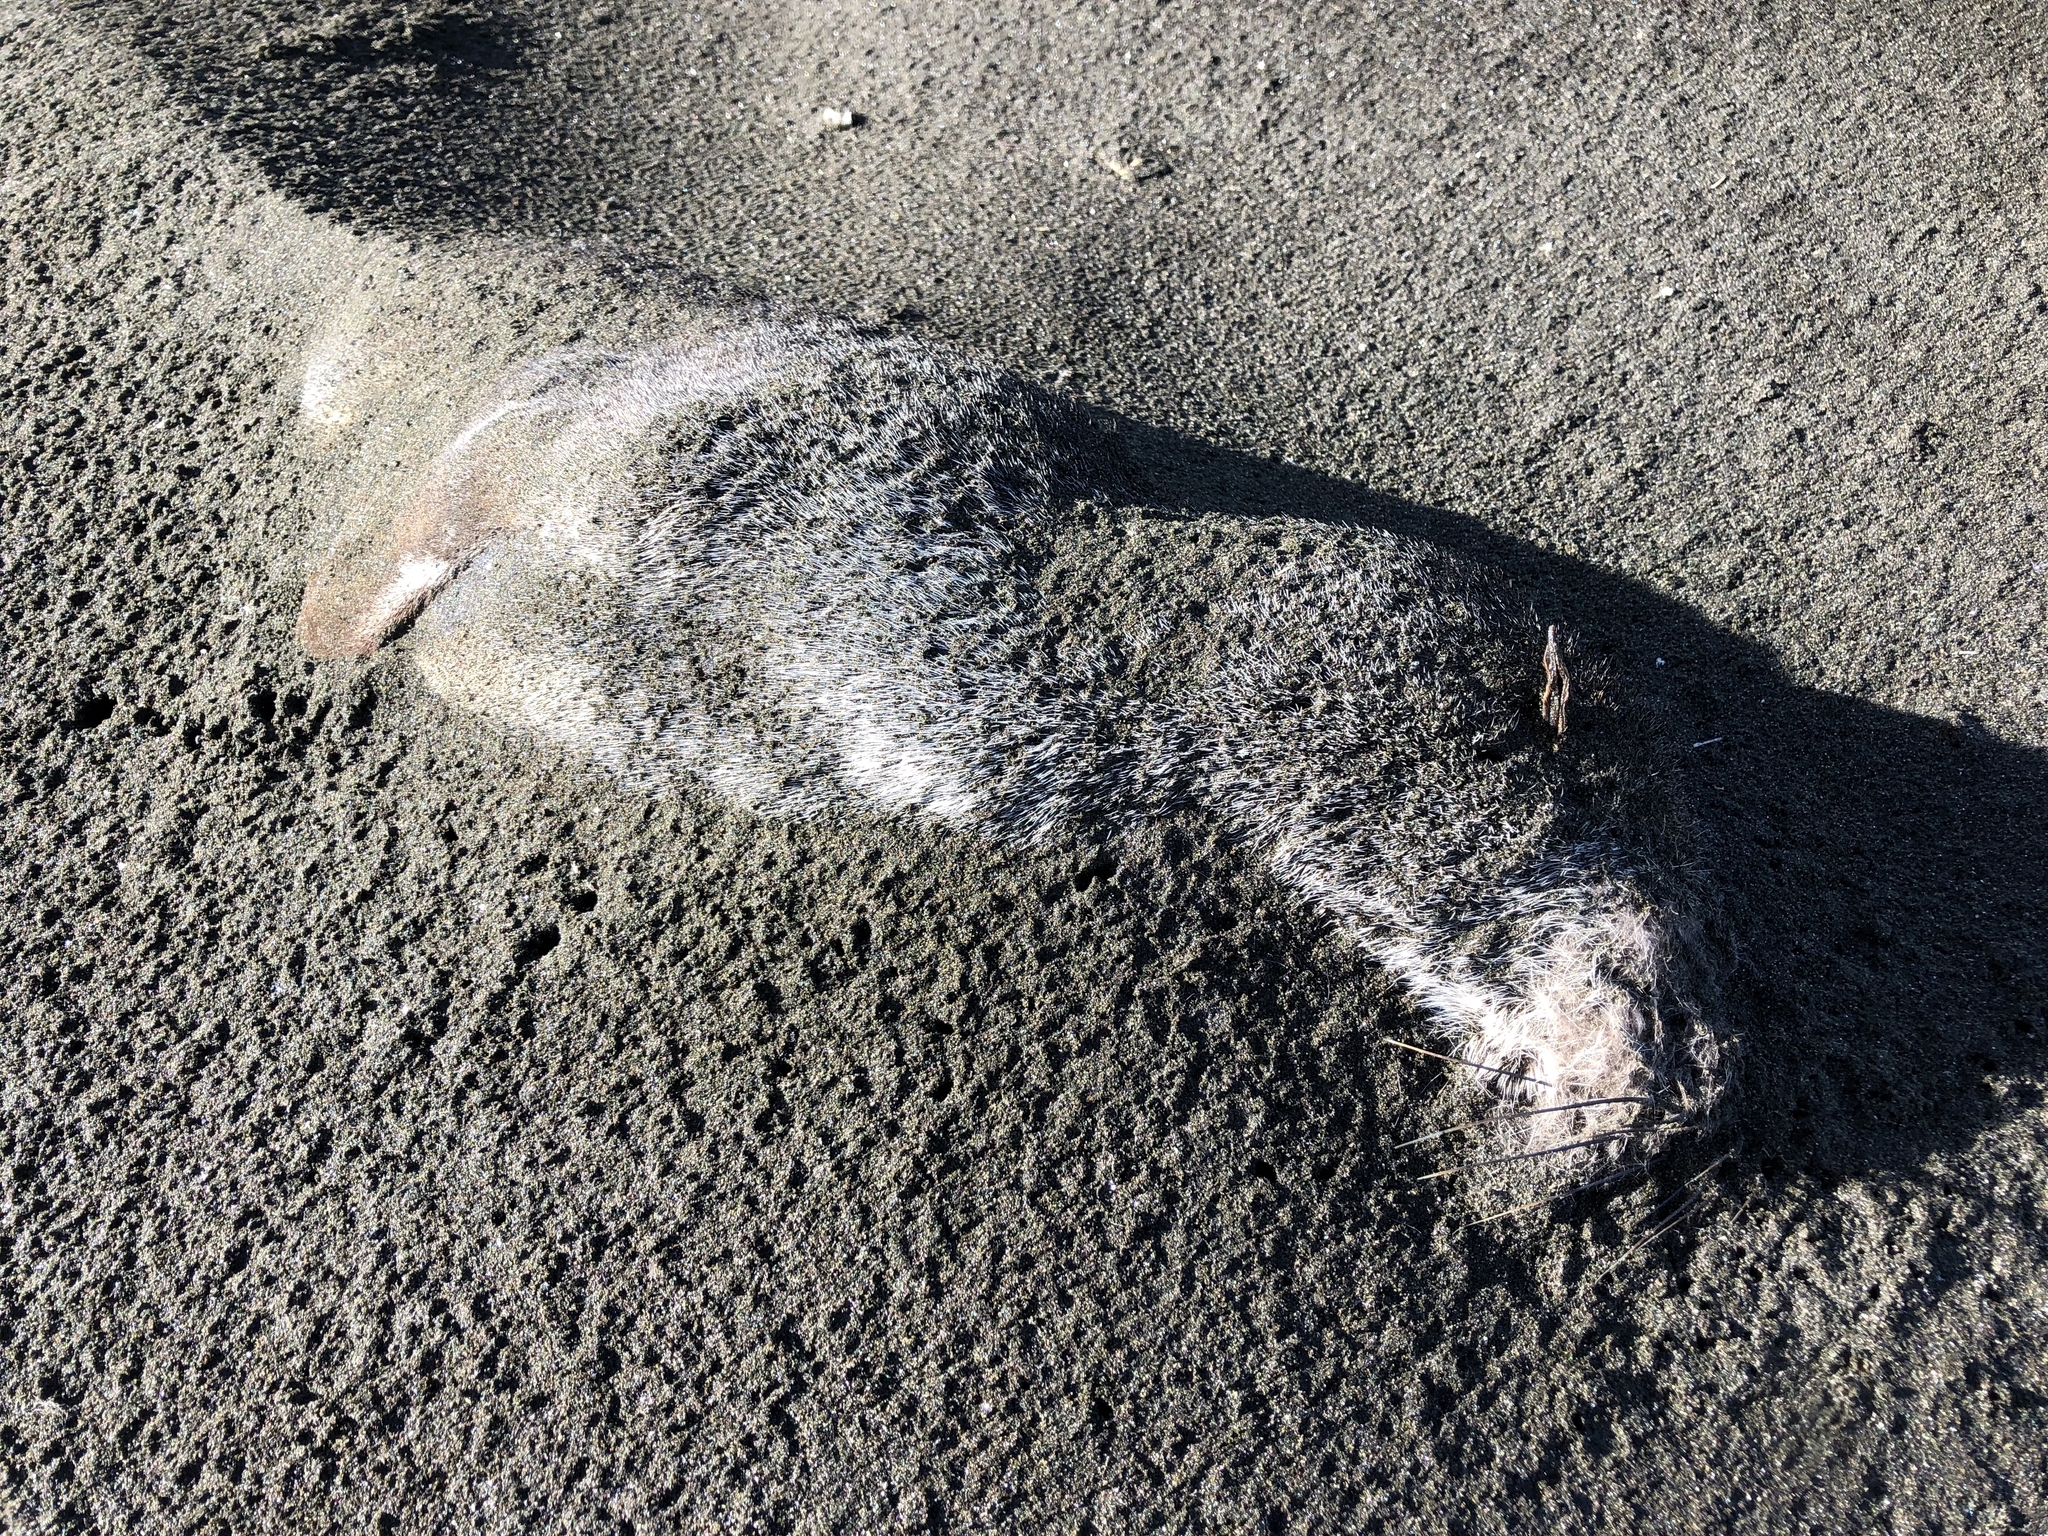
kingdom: Animalia
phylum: Chordata
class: Mammalia
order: Carnivora
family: Otariidae
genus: Arctocephalus
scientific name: Arctocephalus forsteri
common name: New zealand fur seal
